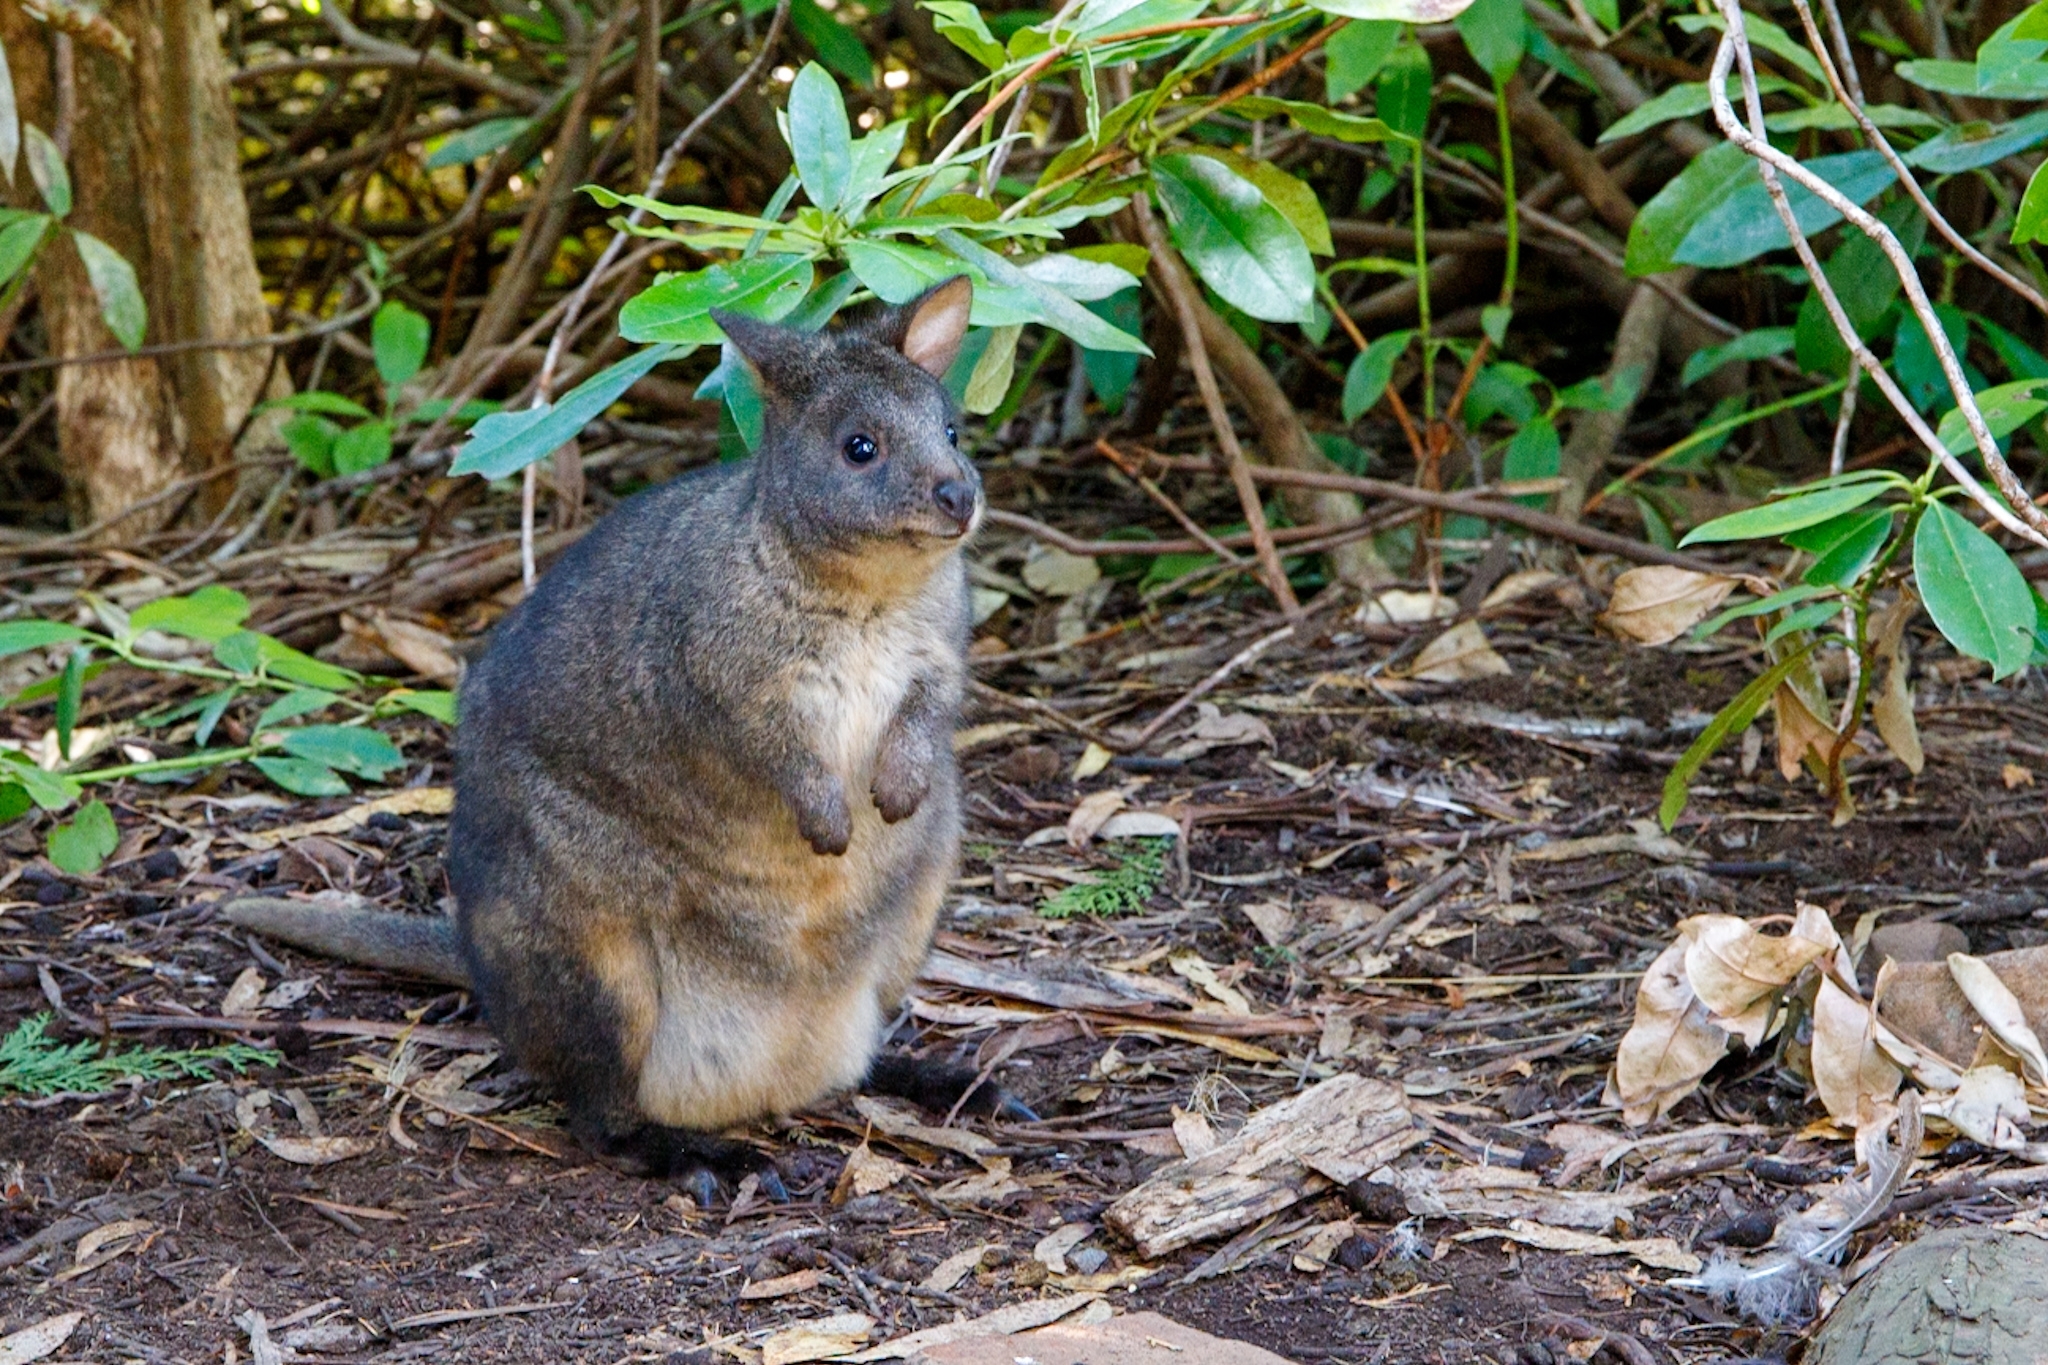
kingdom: Animalia
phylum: Chordata
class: Mammalia
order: Diprotodontia
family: Macropodidae
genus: Thylogale
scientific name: Thylogale billardierii
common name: Tasmanian pademelon
